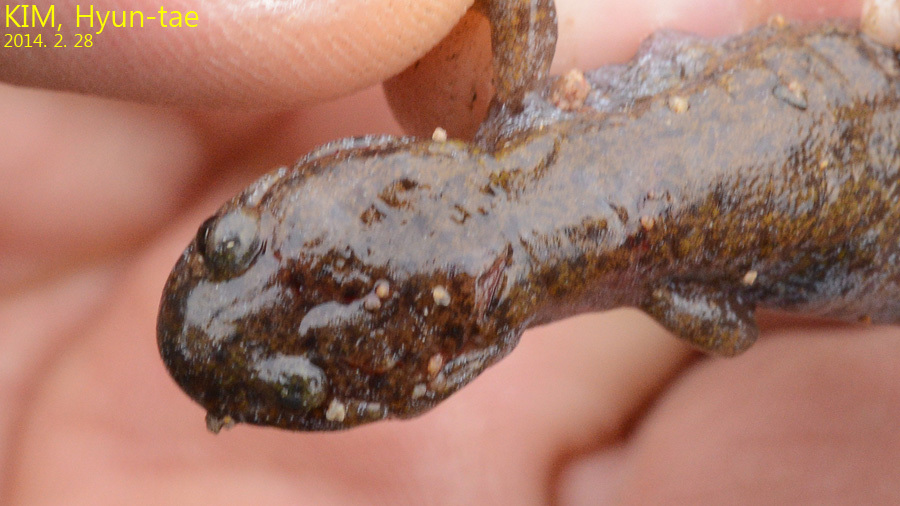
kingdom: Animalia
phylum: Chordata
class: Amphibia
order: Caudata
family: Hynobiidae
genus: Hynobius
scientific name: Hynobius quelpaertensis
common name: Cheju salamander
